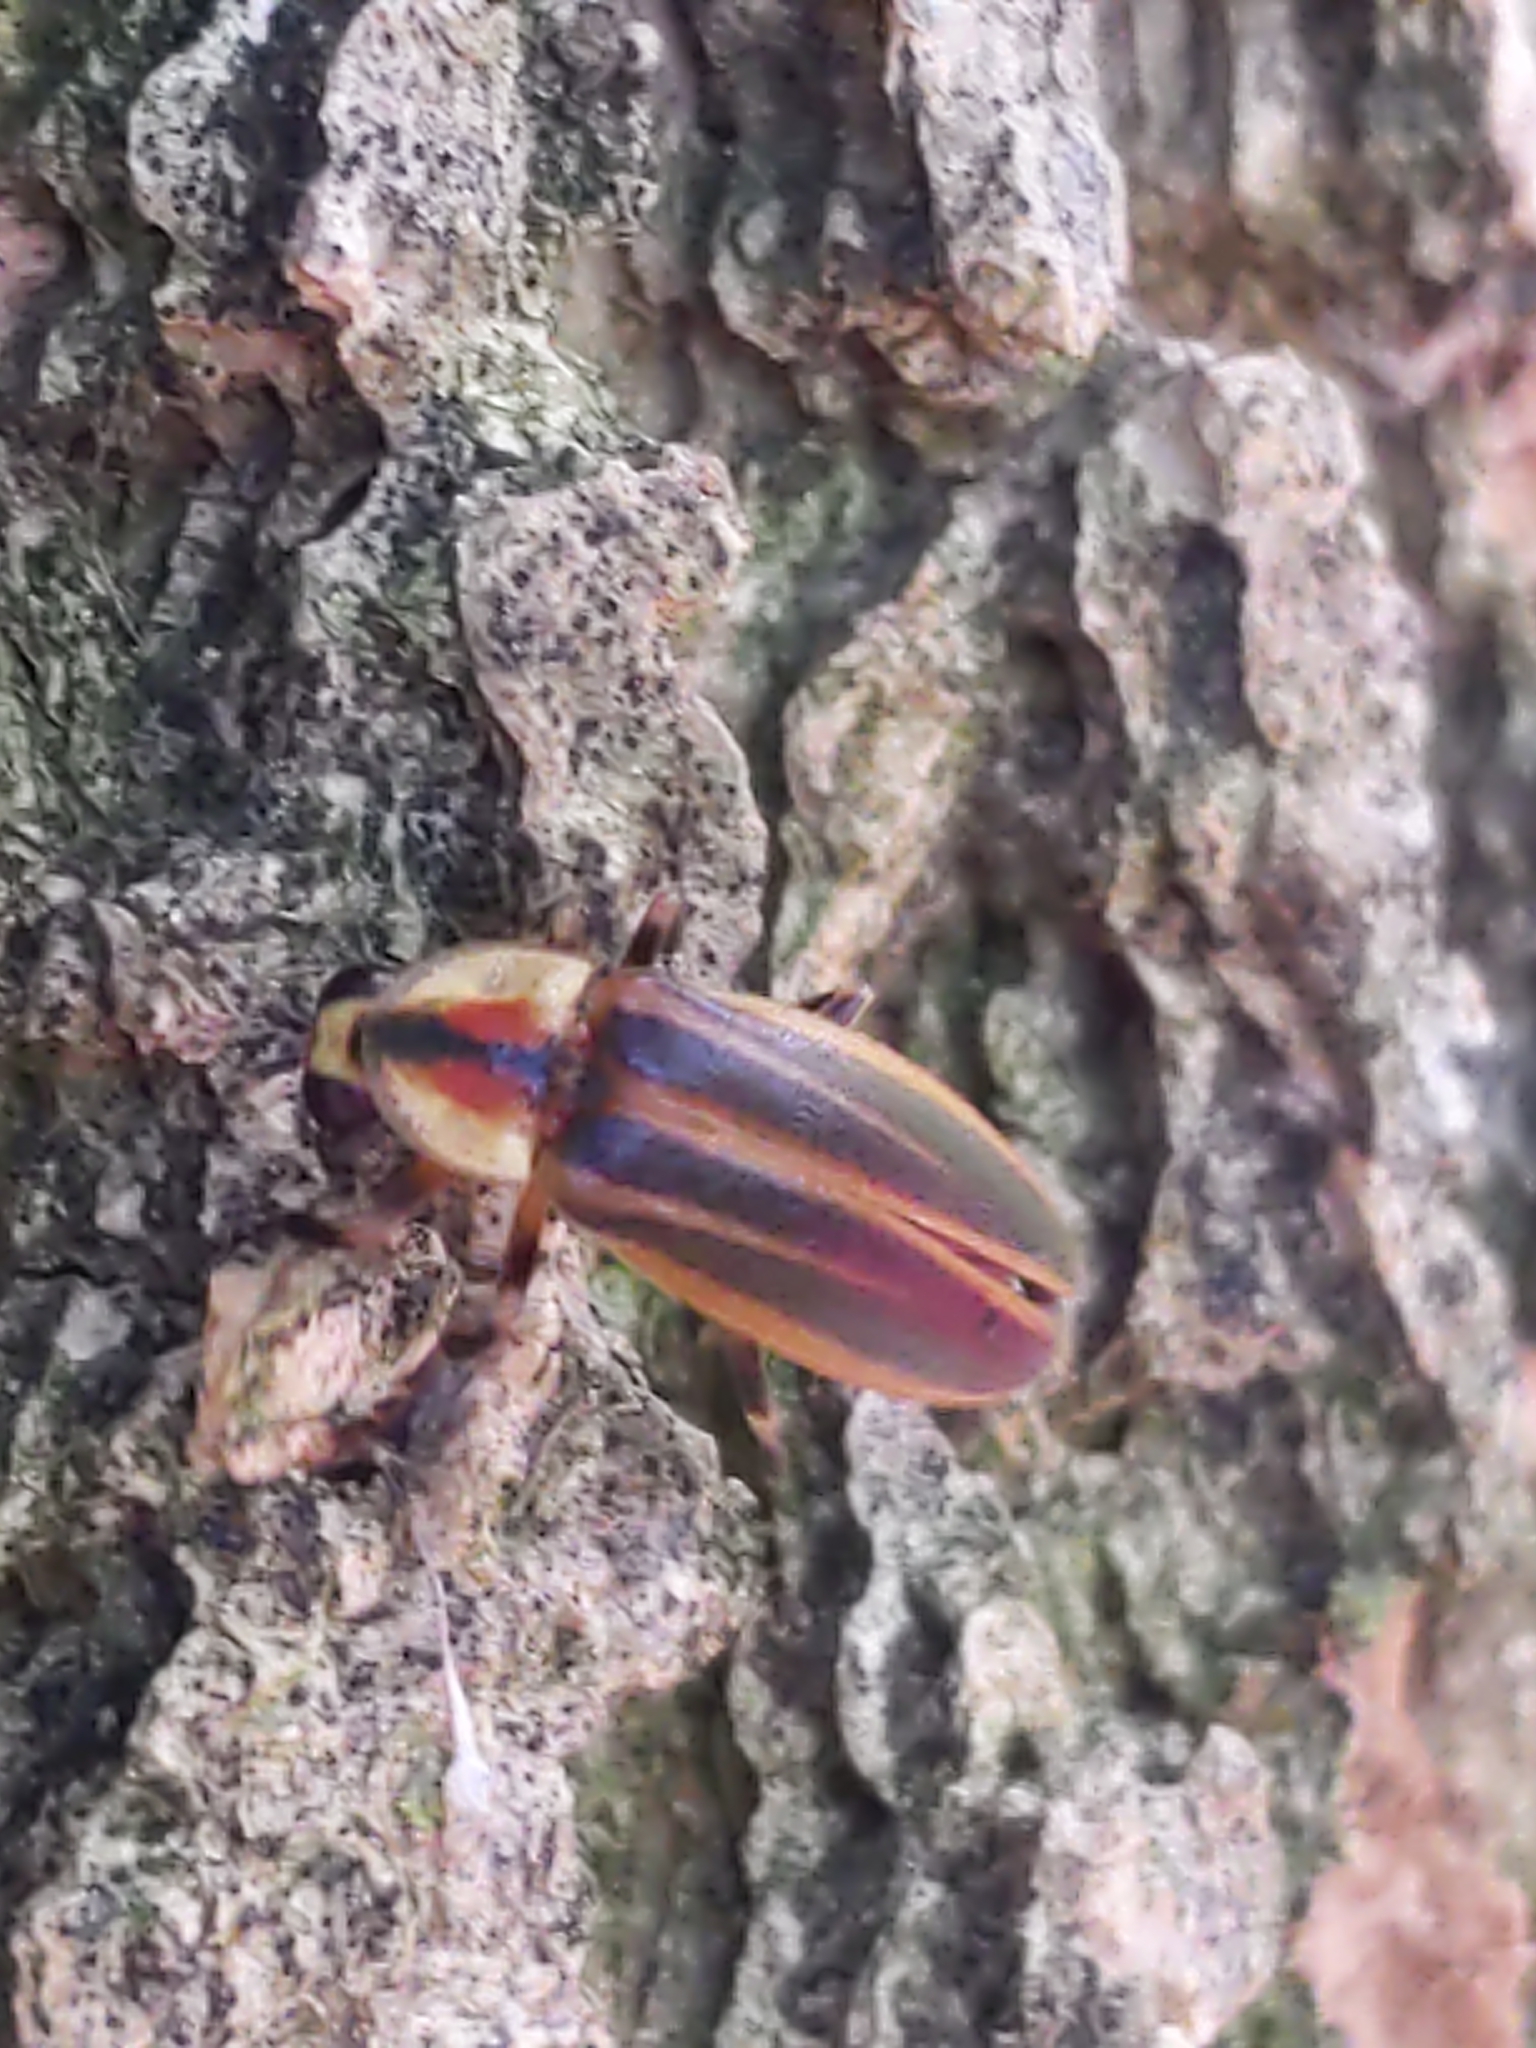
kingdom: Animalia
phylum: Arthropoda
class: Insecta
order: Coleoptera
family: Lampyridae
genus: Photuris
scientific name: Photuris
